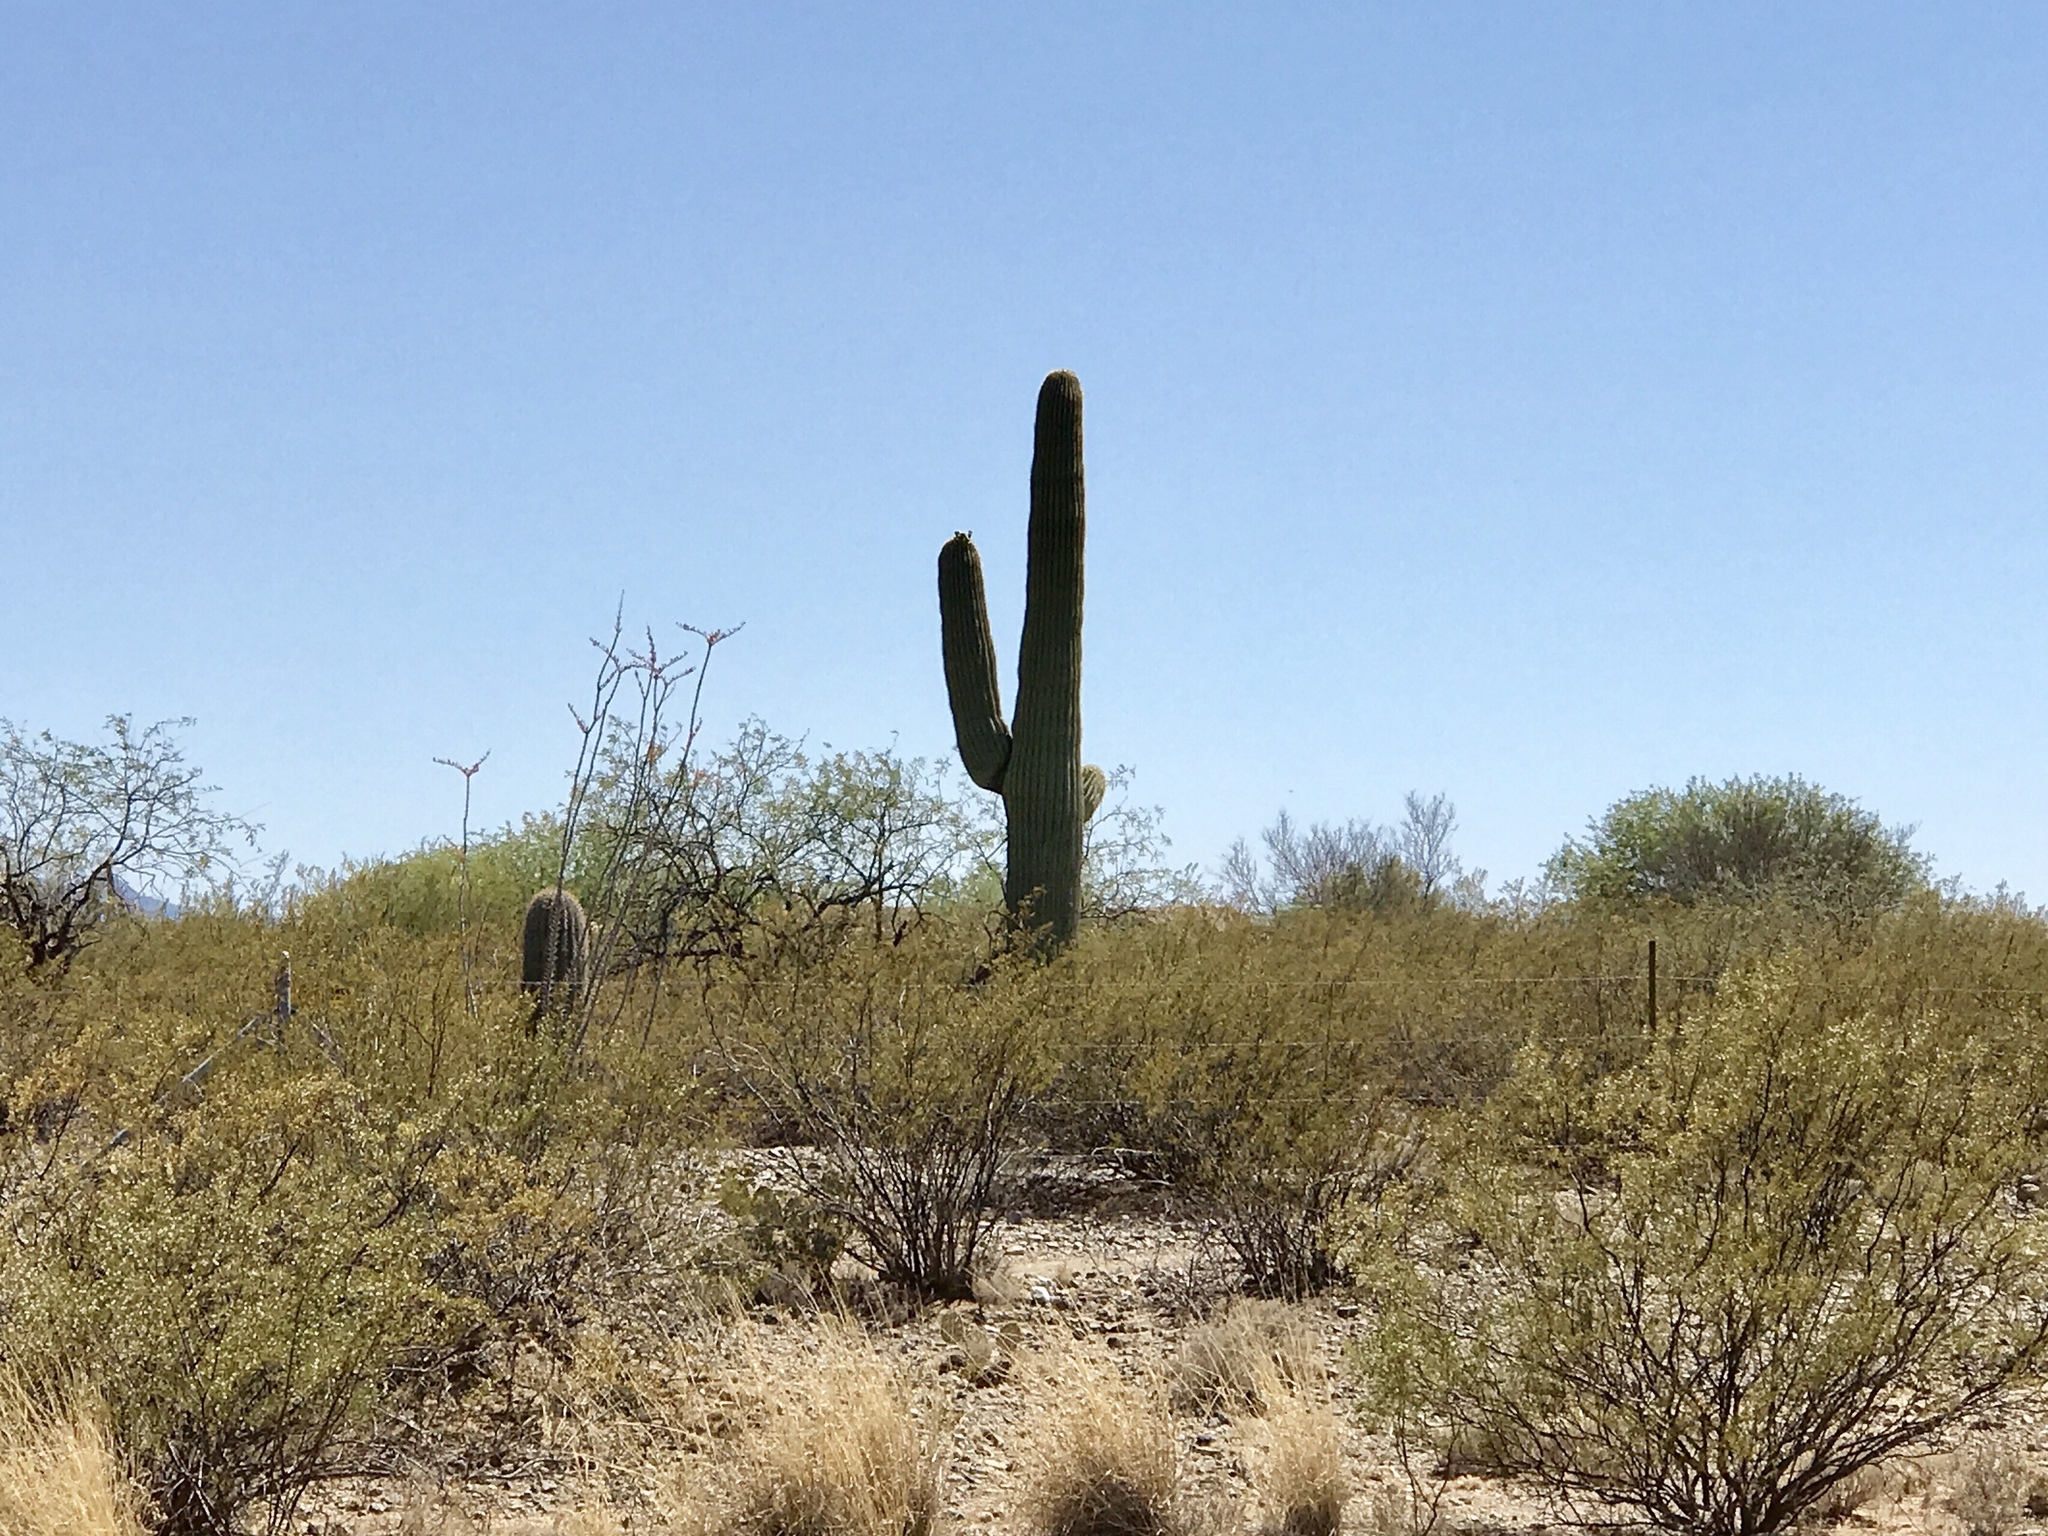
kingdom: Plantae
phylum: Tracheophyta
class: Magnoliopsida
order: Caryophyllales
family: Cactaceae
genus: Carnegiea
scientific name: Carnegiea gigantea
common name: Saguaro
